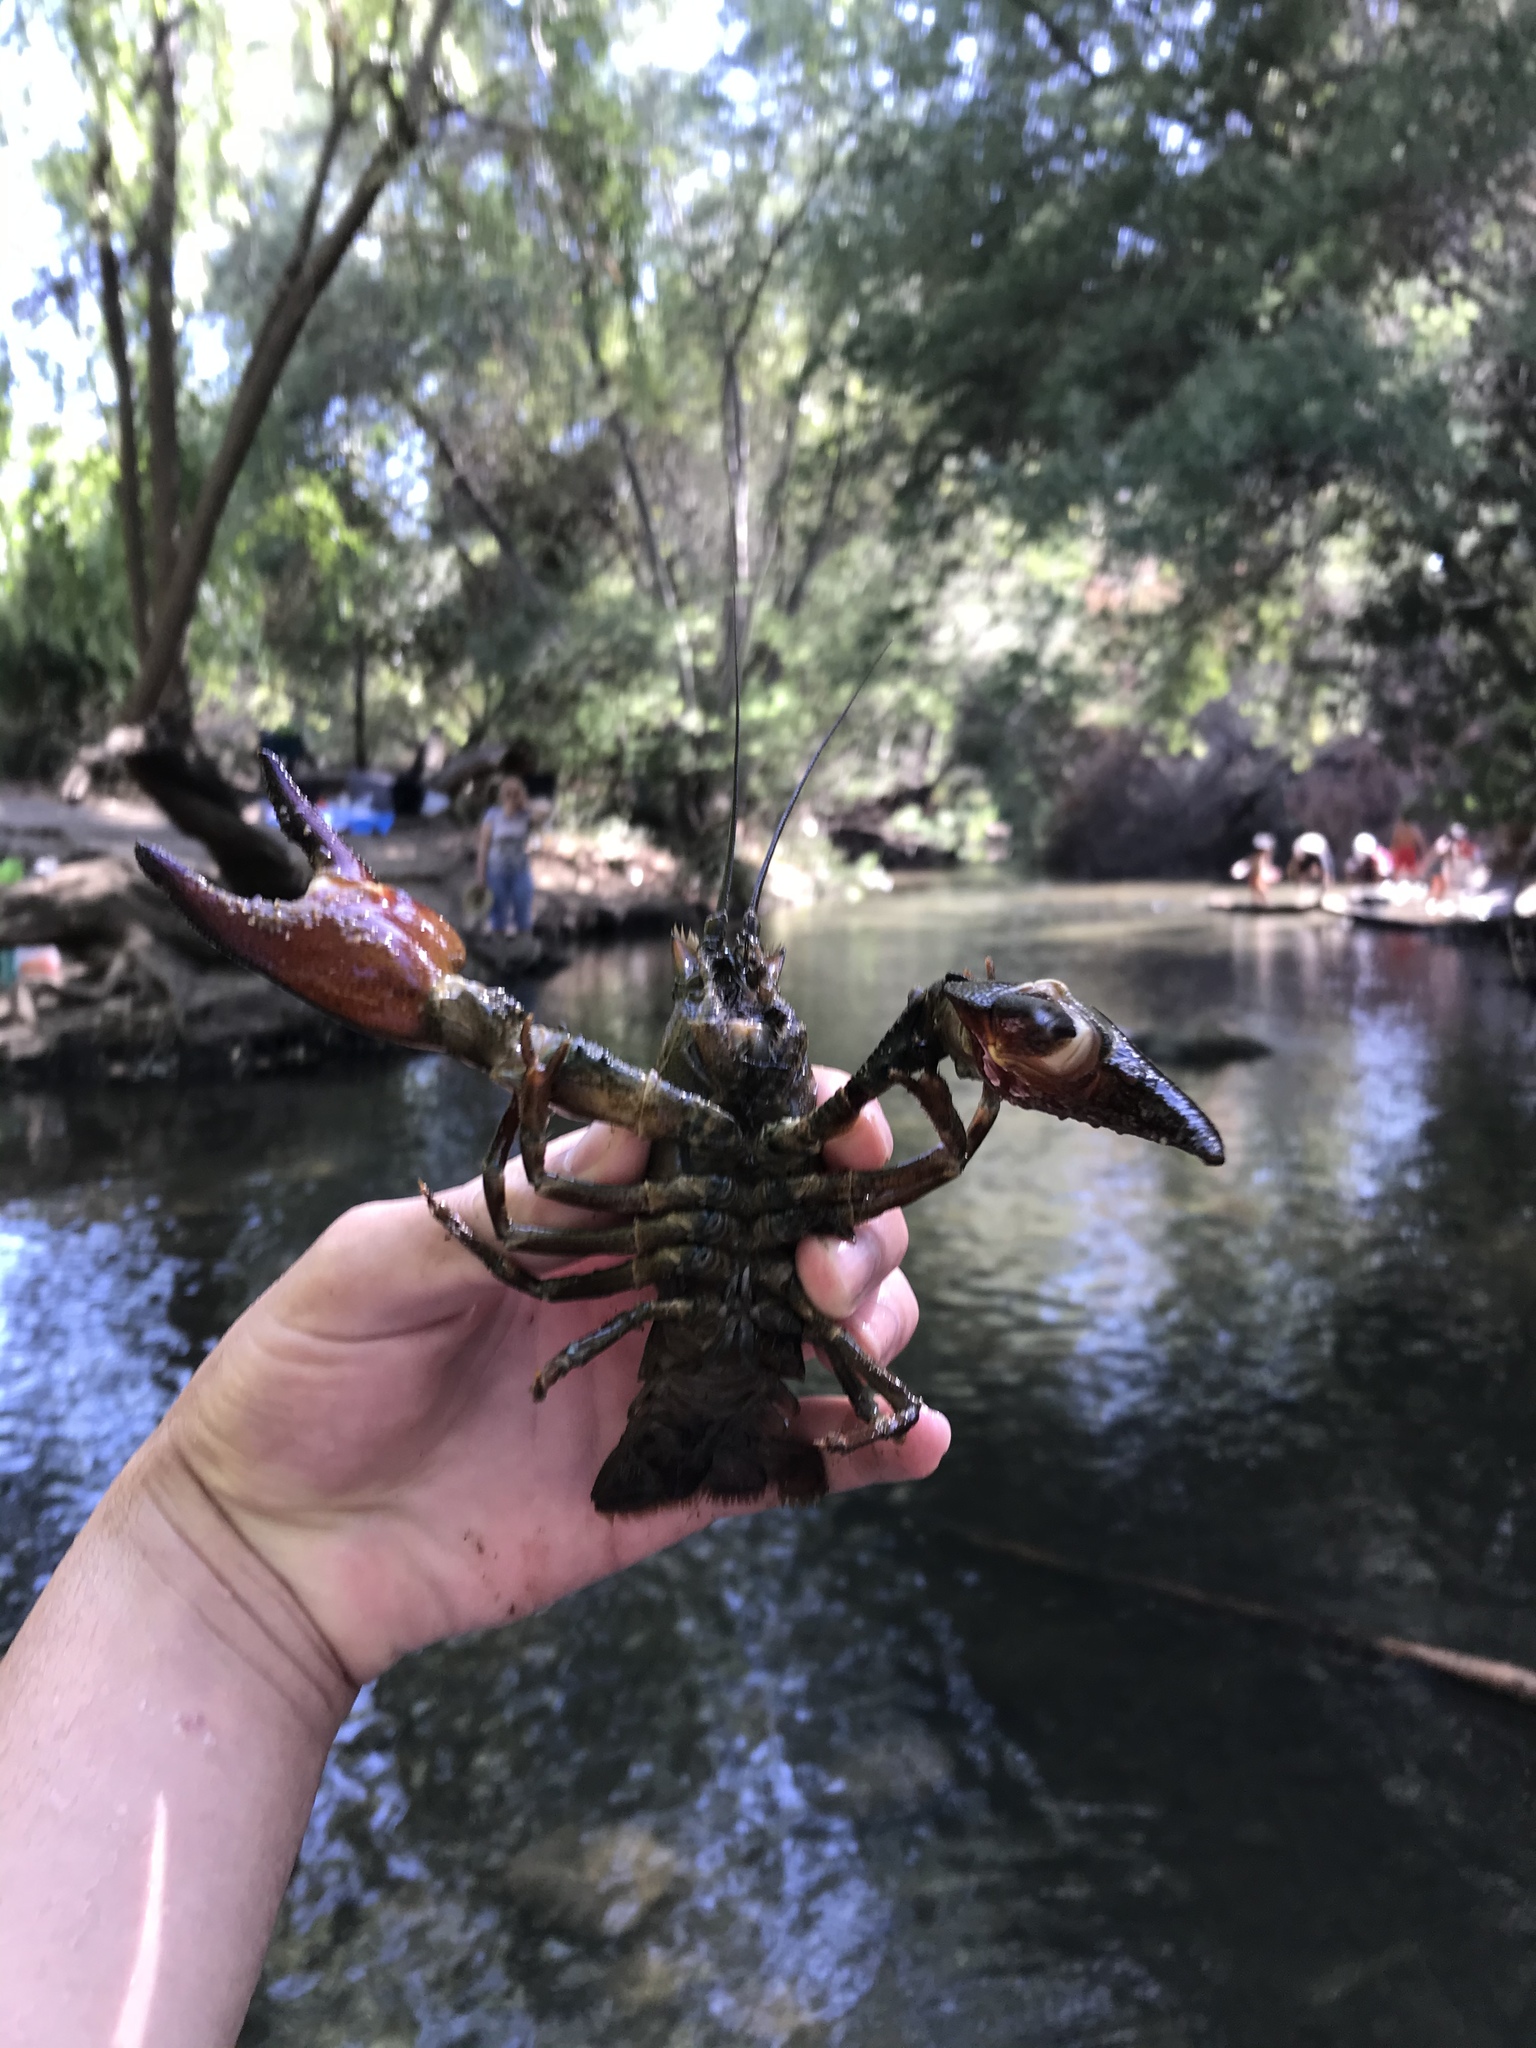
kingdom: Animalia
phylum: Arthropoda
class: Malacostraca
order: Decapoda
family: Astacidae
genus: Pacifastacus
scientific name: Pacifastacus leniusculus
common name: Signal crayfish
